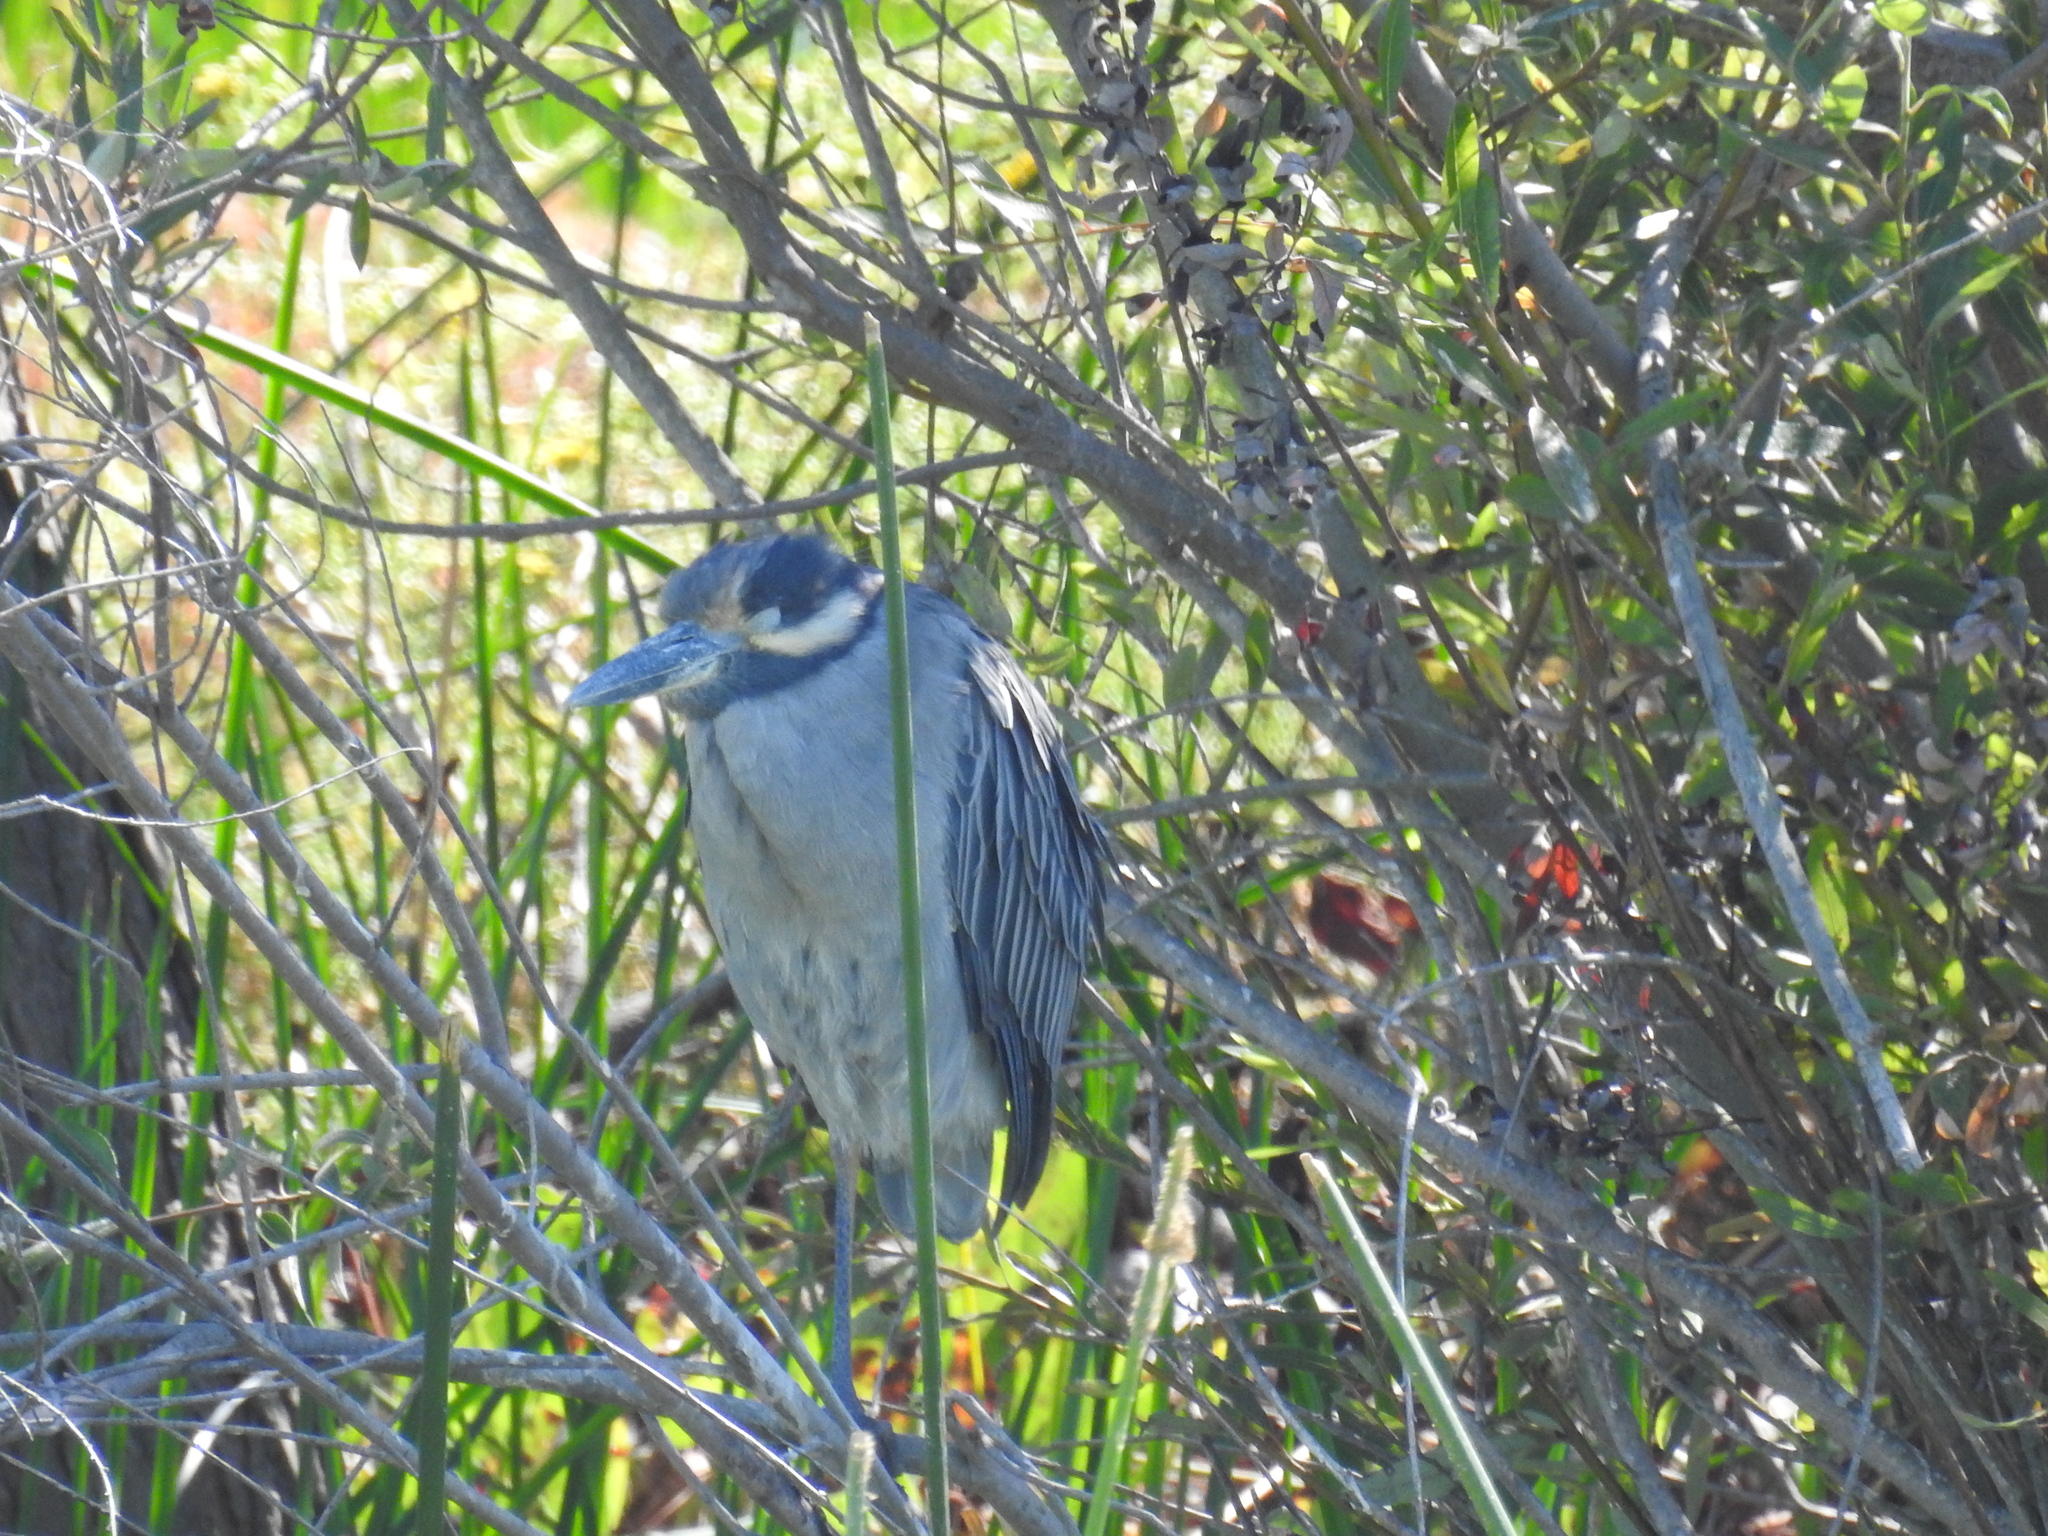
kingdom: Animalia
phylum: Chordata
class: Aves
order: Pelecaniformes
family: Ardeidae
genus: Nyctanassa
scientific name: Nyctanassa violacea
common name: Yellow-crowned night heron
